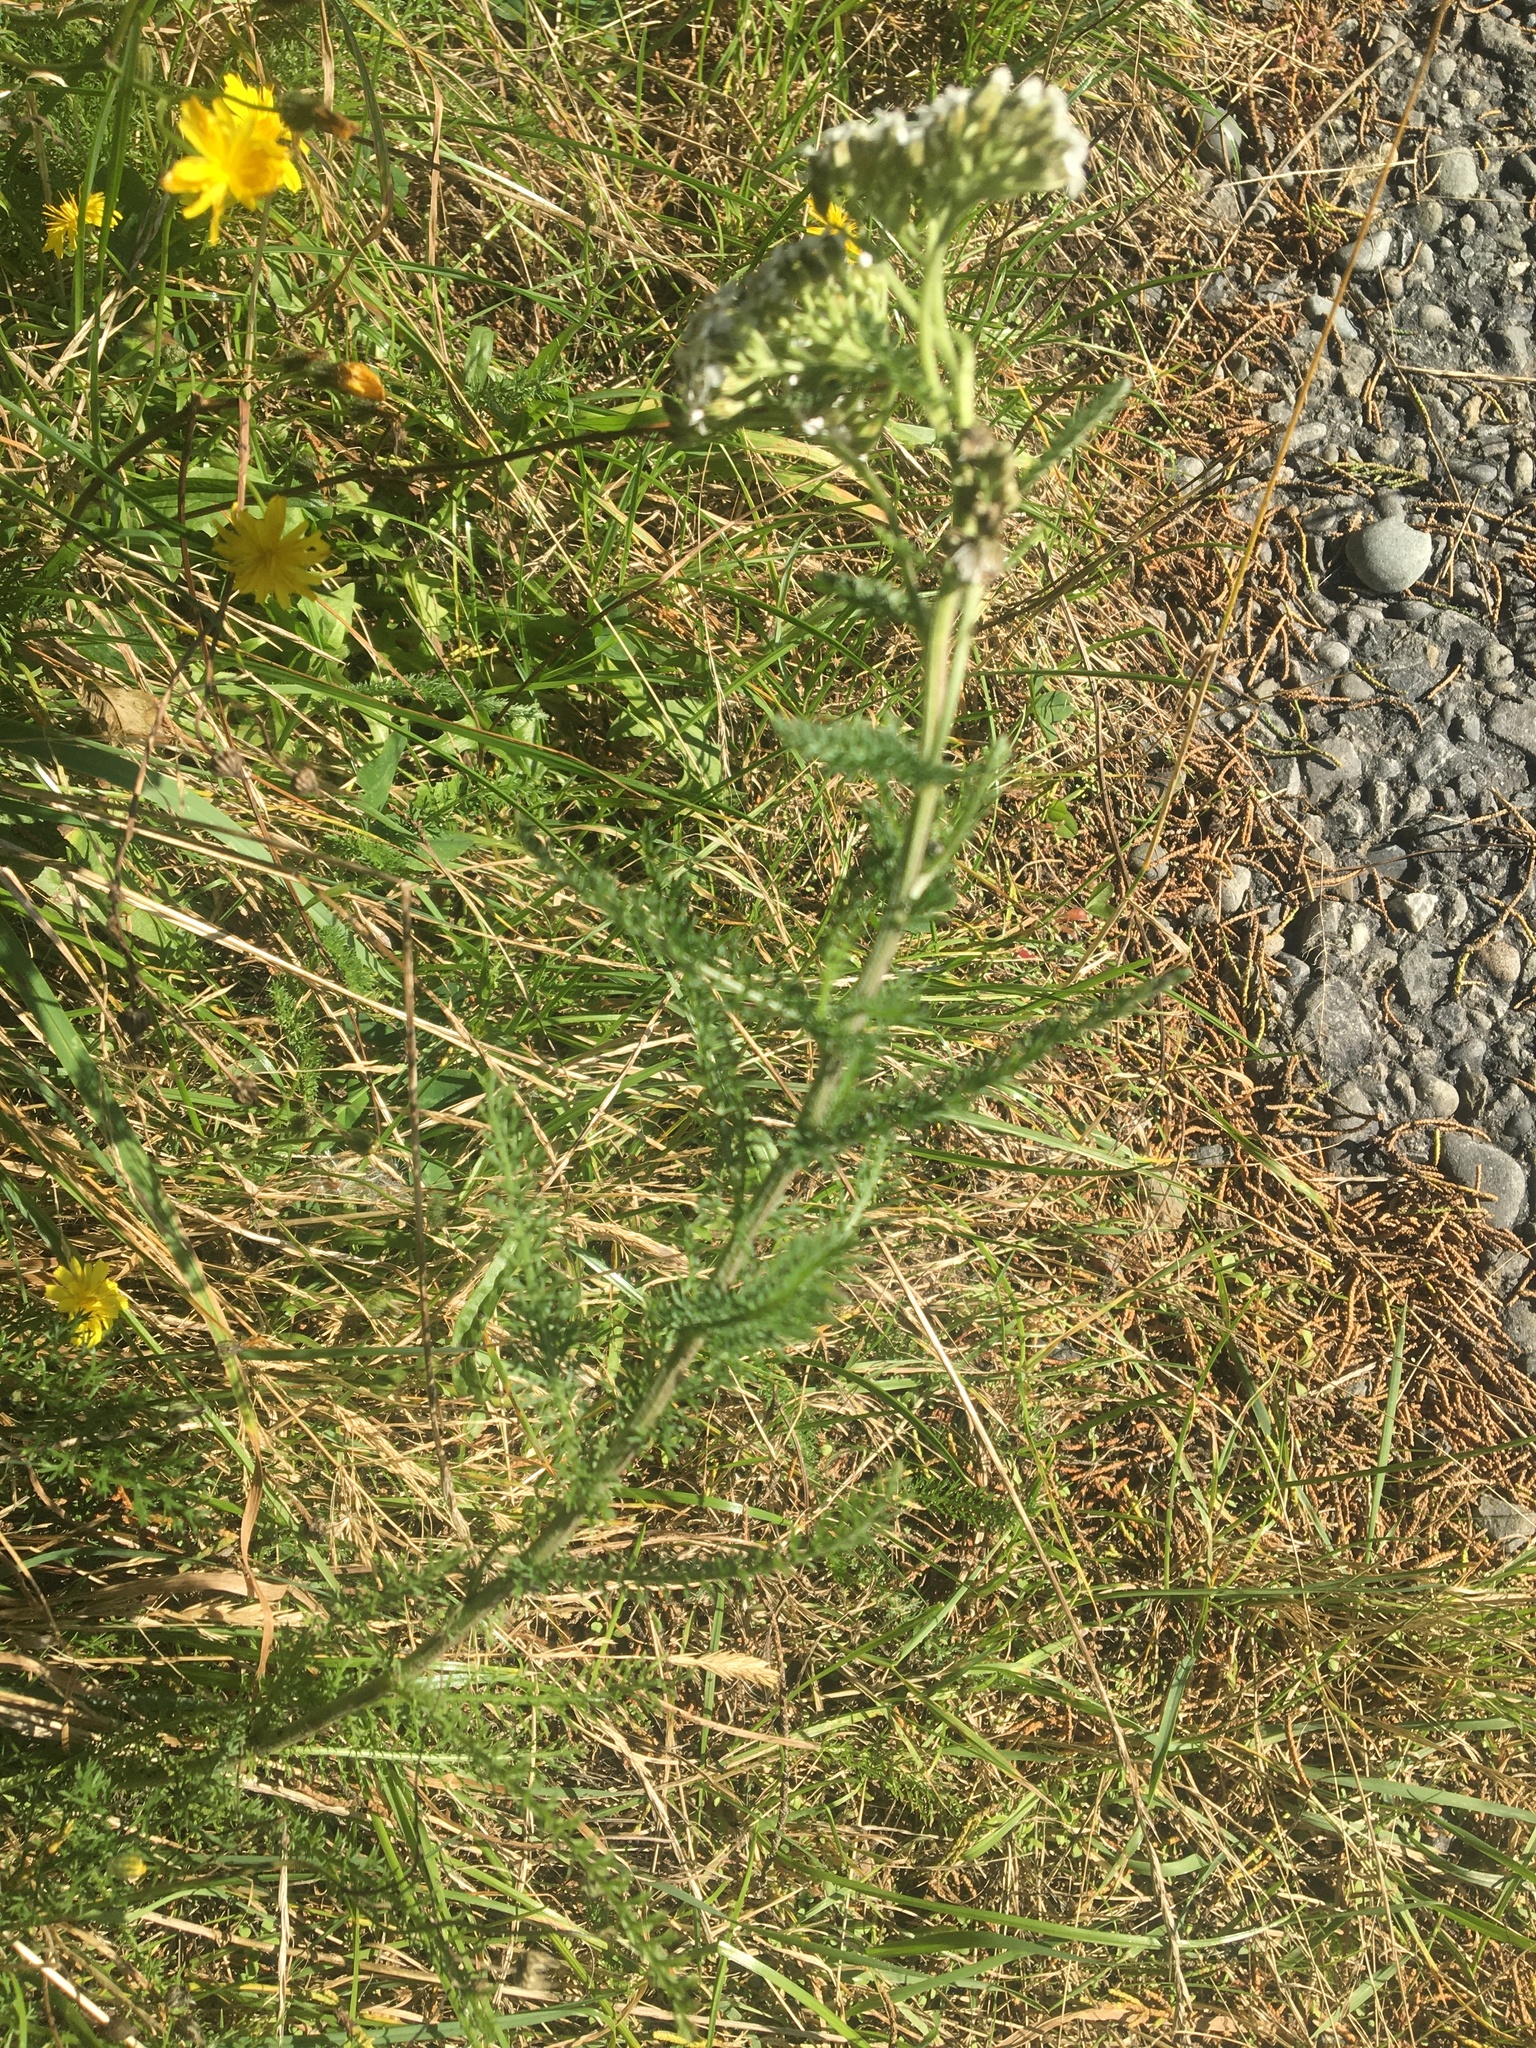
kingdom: Plantae
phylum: Tracheophyta
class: Magnoliopsida
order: Asterales
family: Asteraceae
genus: Achillea
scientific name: Achillea millefolium
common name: Yarrow
